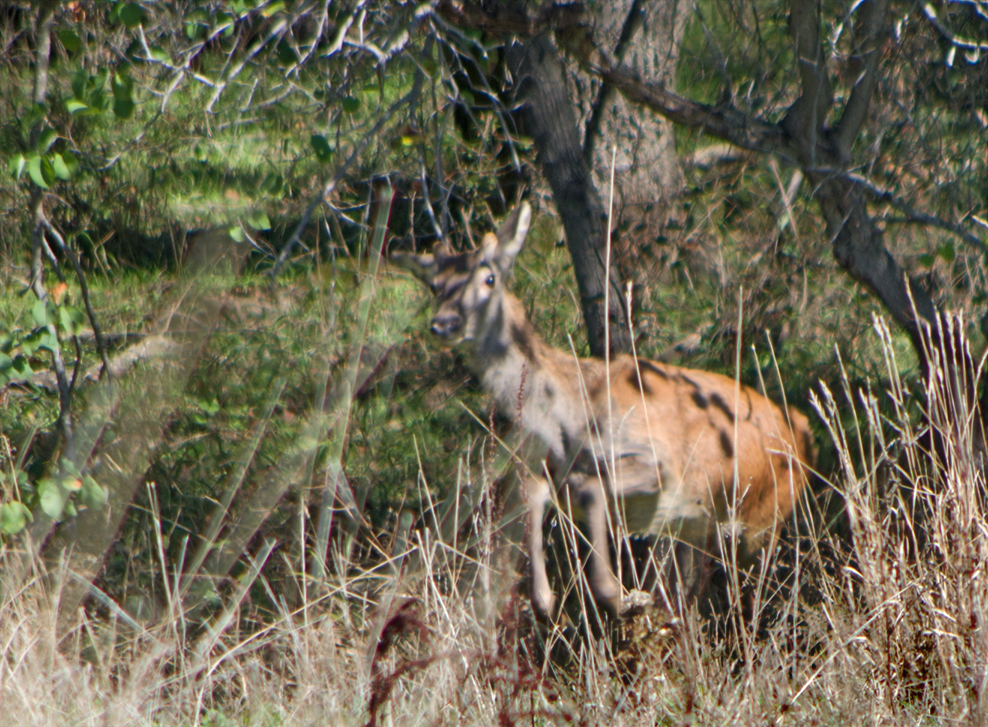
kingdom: Animalia
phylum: Chordata
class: Mammalia
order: Artiodactyla
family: Cervidae
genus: Cervus
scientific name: Cervus elaphus
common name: Red deer
